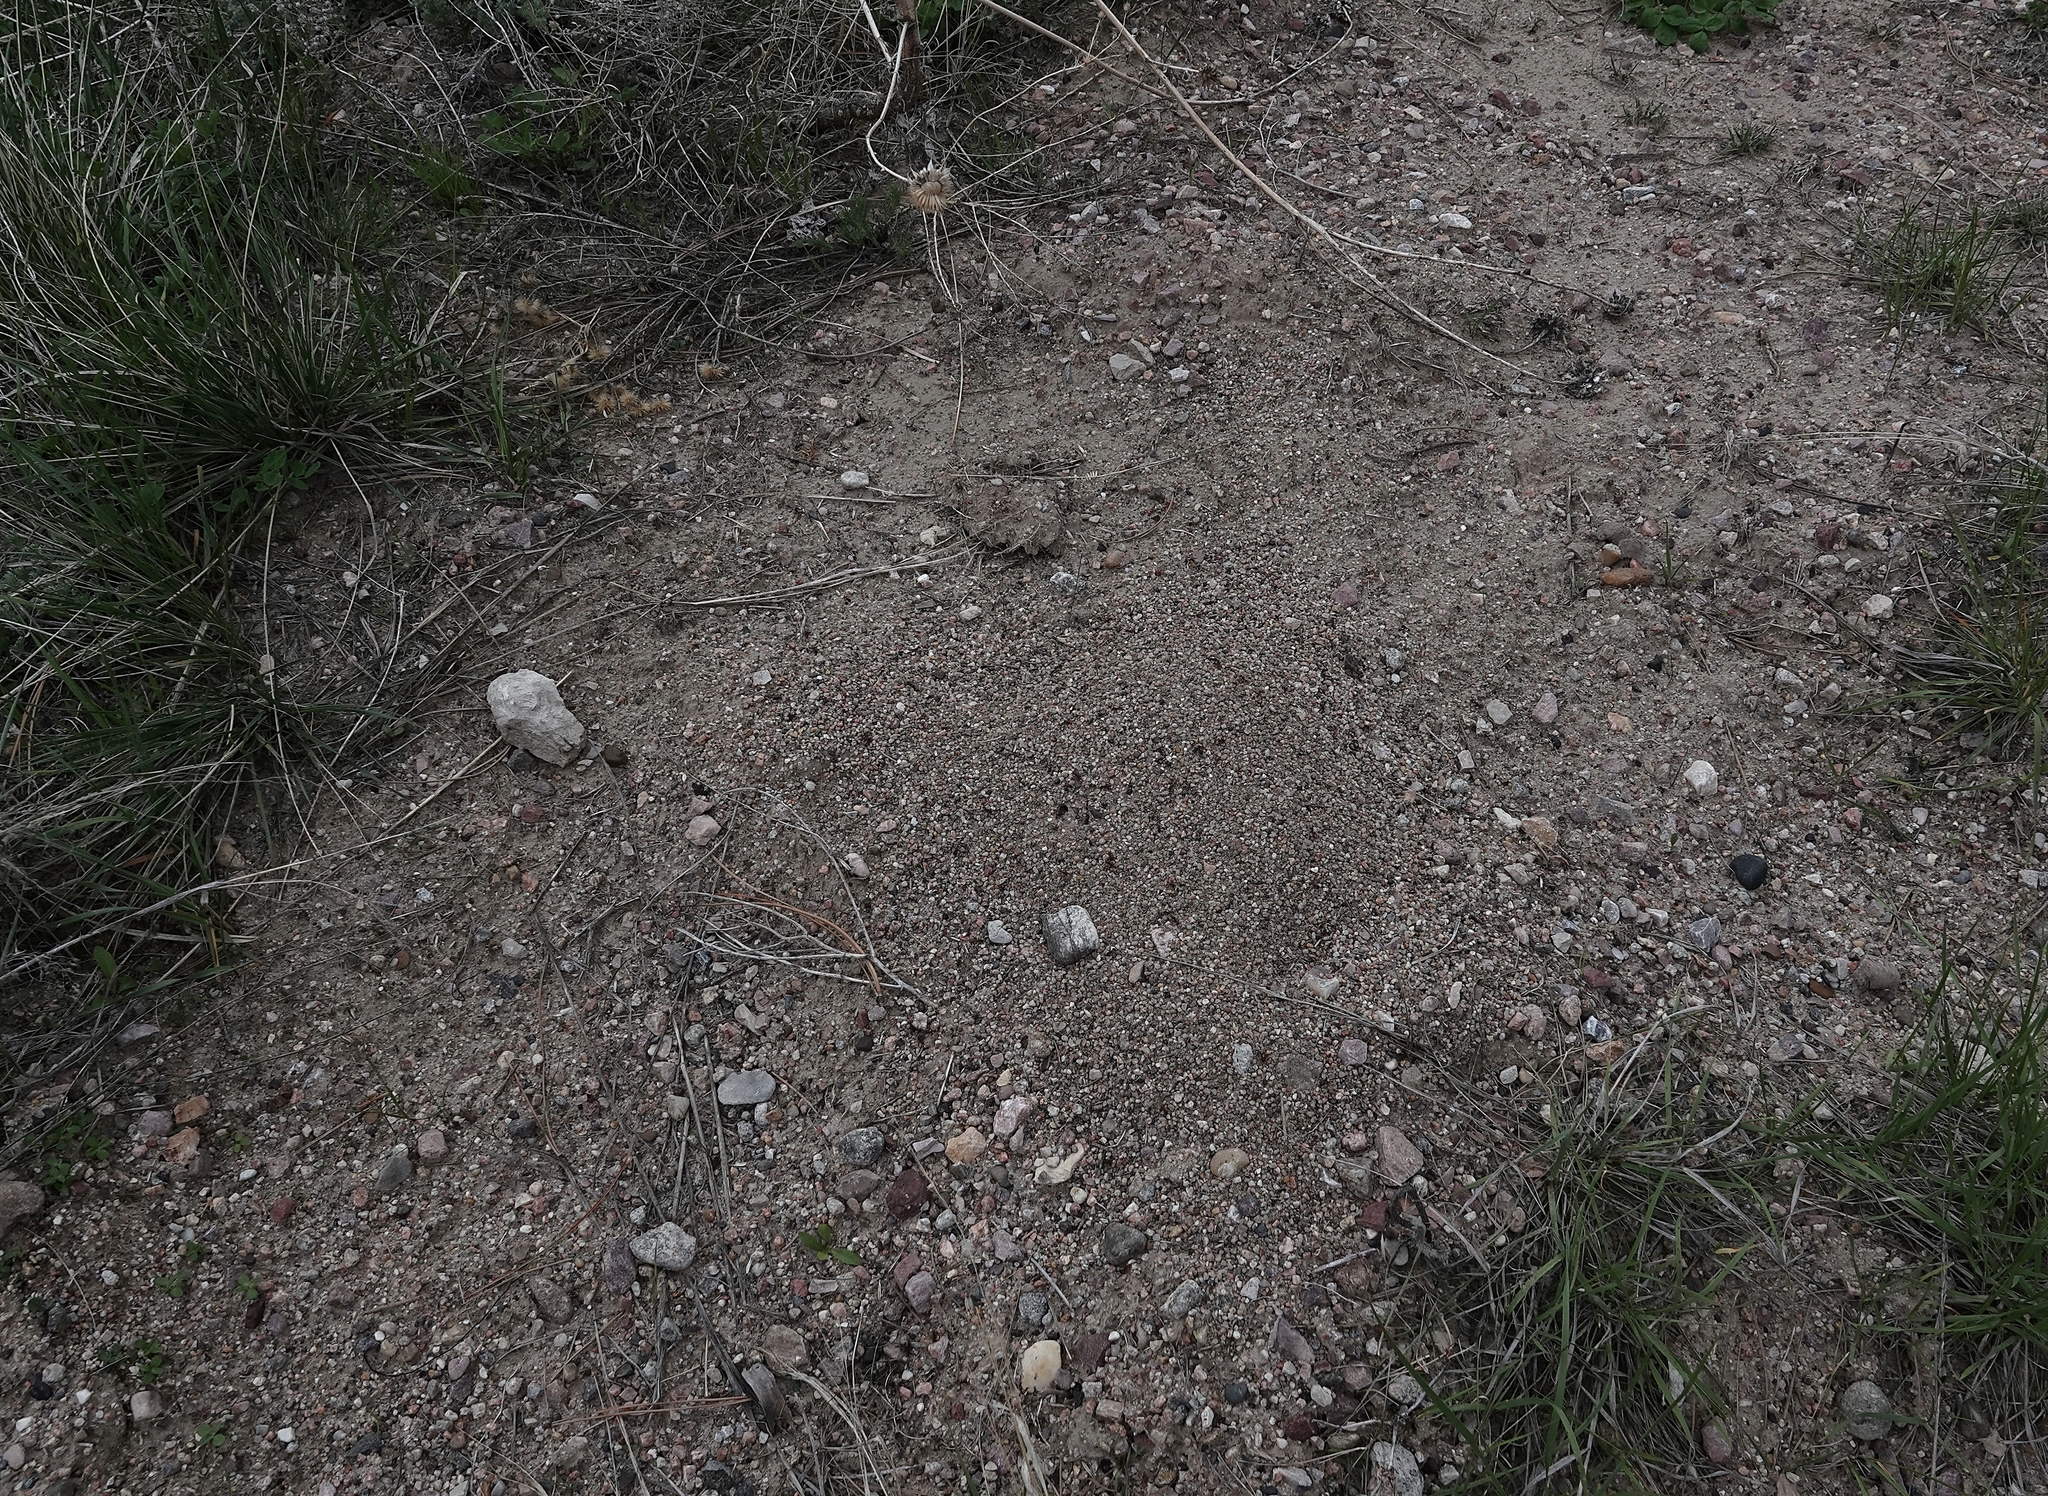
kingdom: Animalia
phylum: Arthropoda
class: Insecta
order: Hymenoptera
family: Formicidae
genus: Pogonomyrmex
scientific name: Pogonomyrmex occidentalis
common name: Western harvester ant
